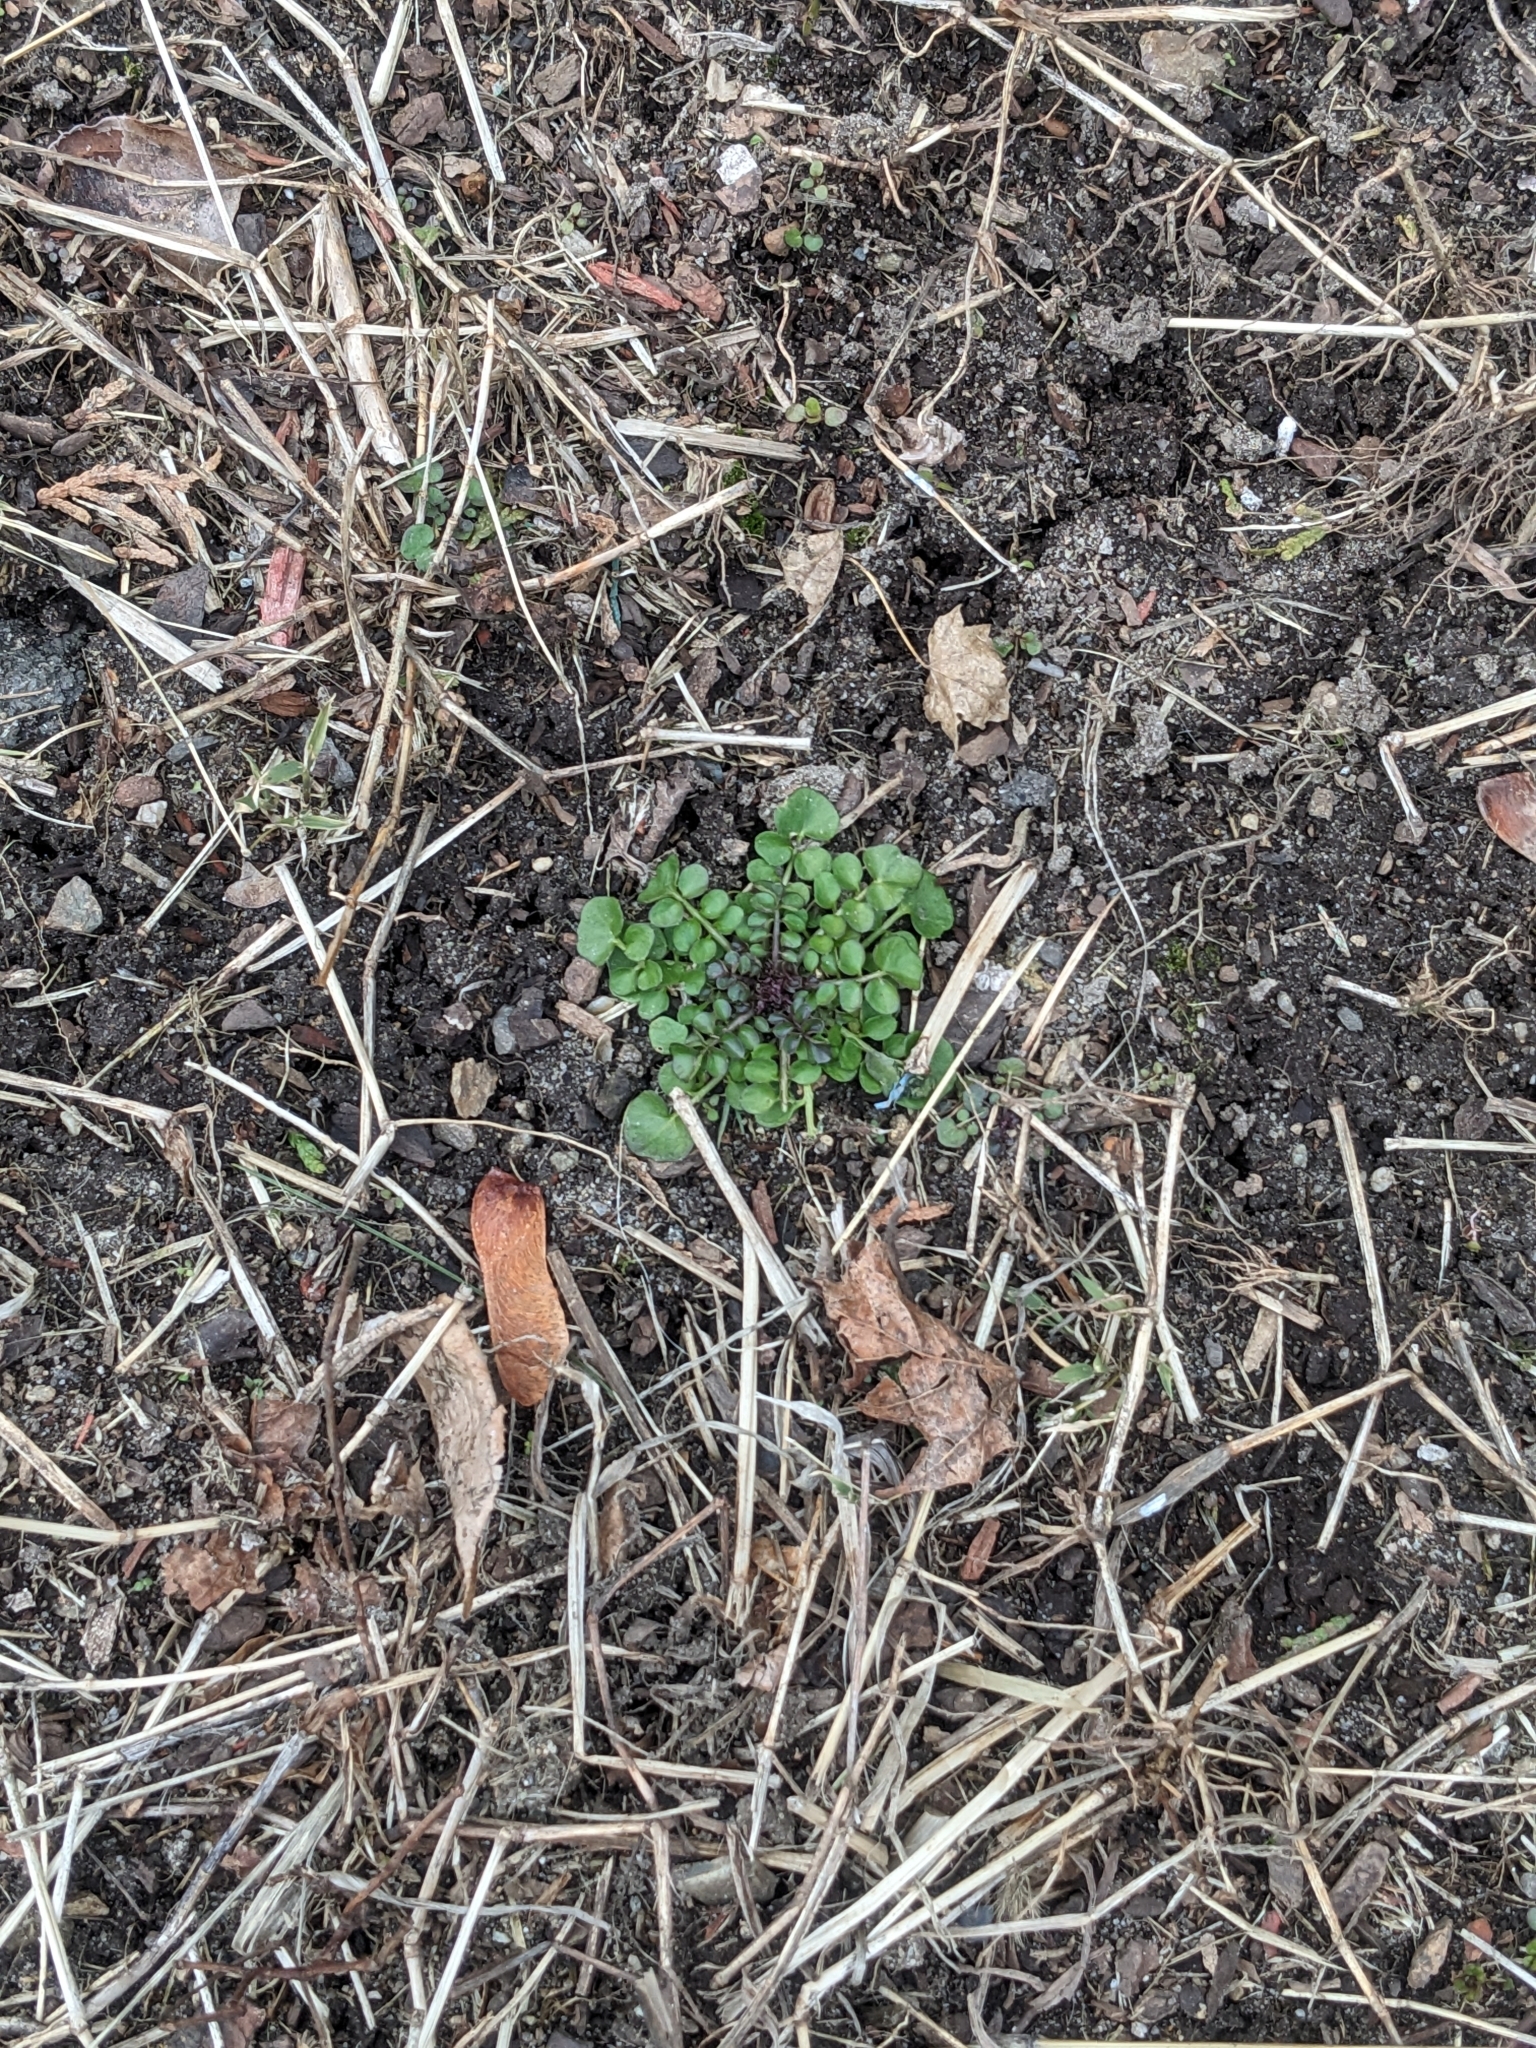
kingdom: Plantae
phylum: Tracheophyta
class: Magnoliopsida
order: Brassicales
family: Brassicaceae
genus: Cardamine
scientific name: Cardamine hirsuta
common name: Hairy bittercress
